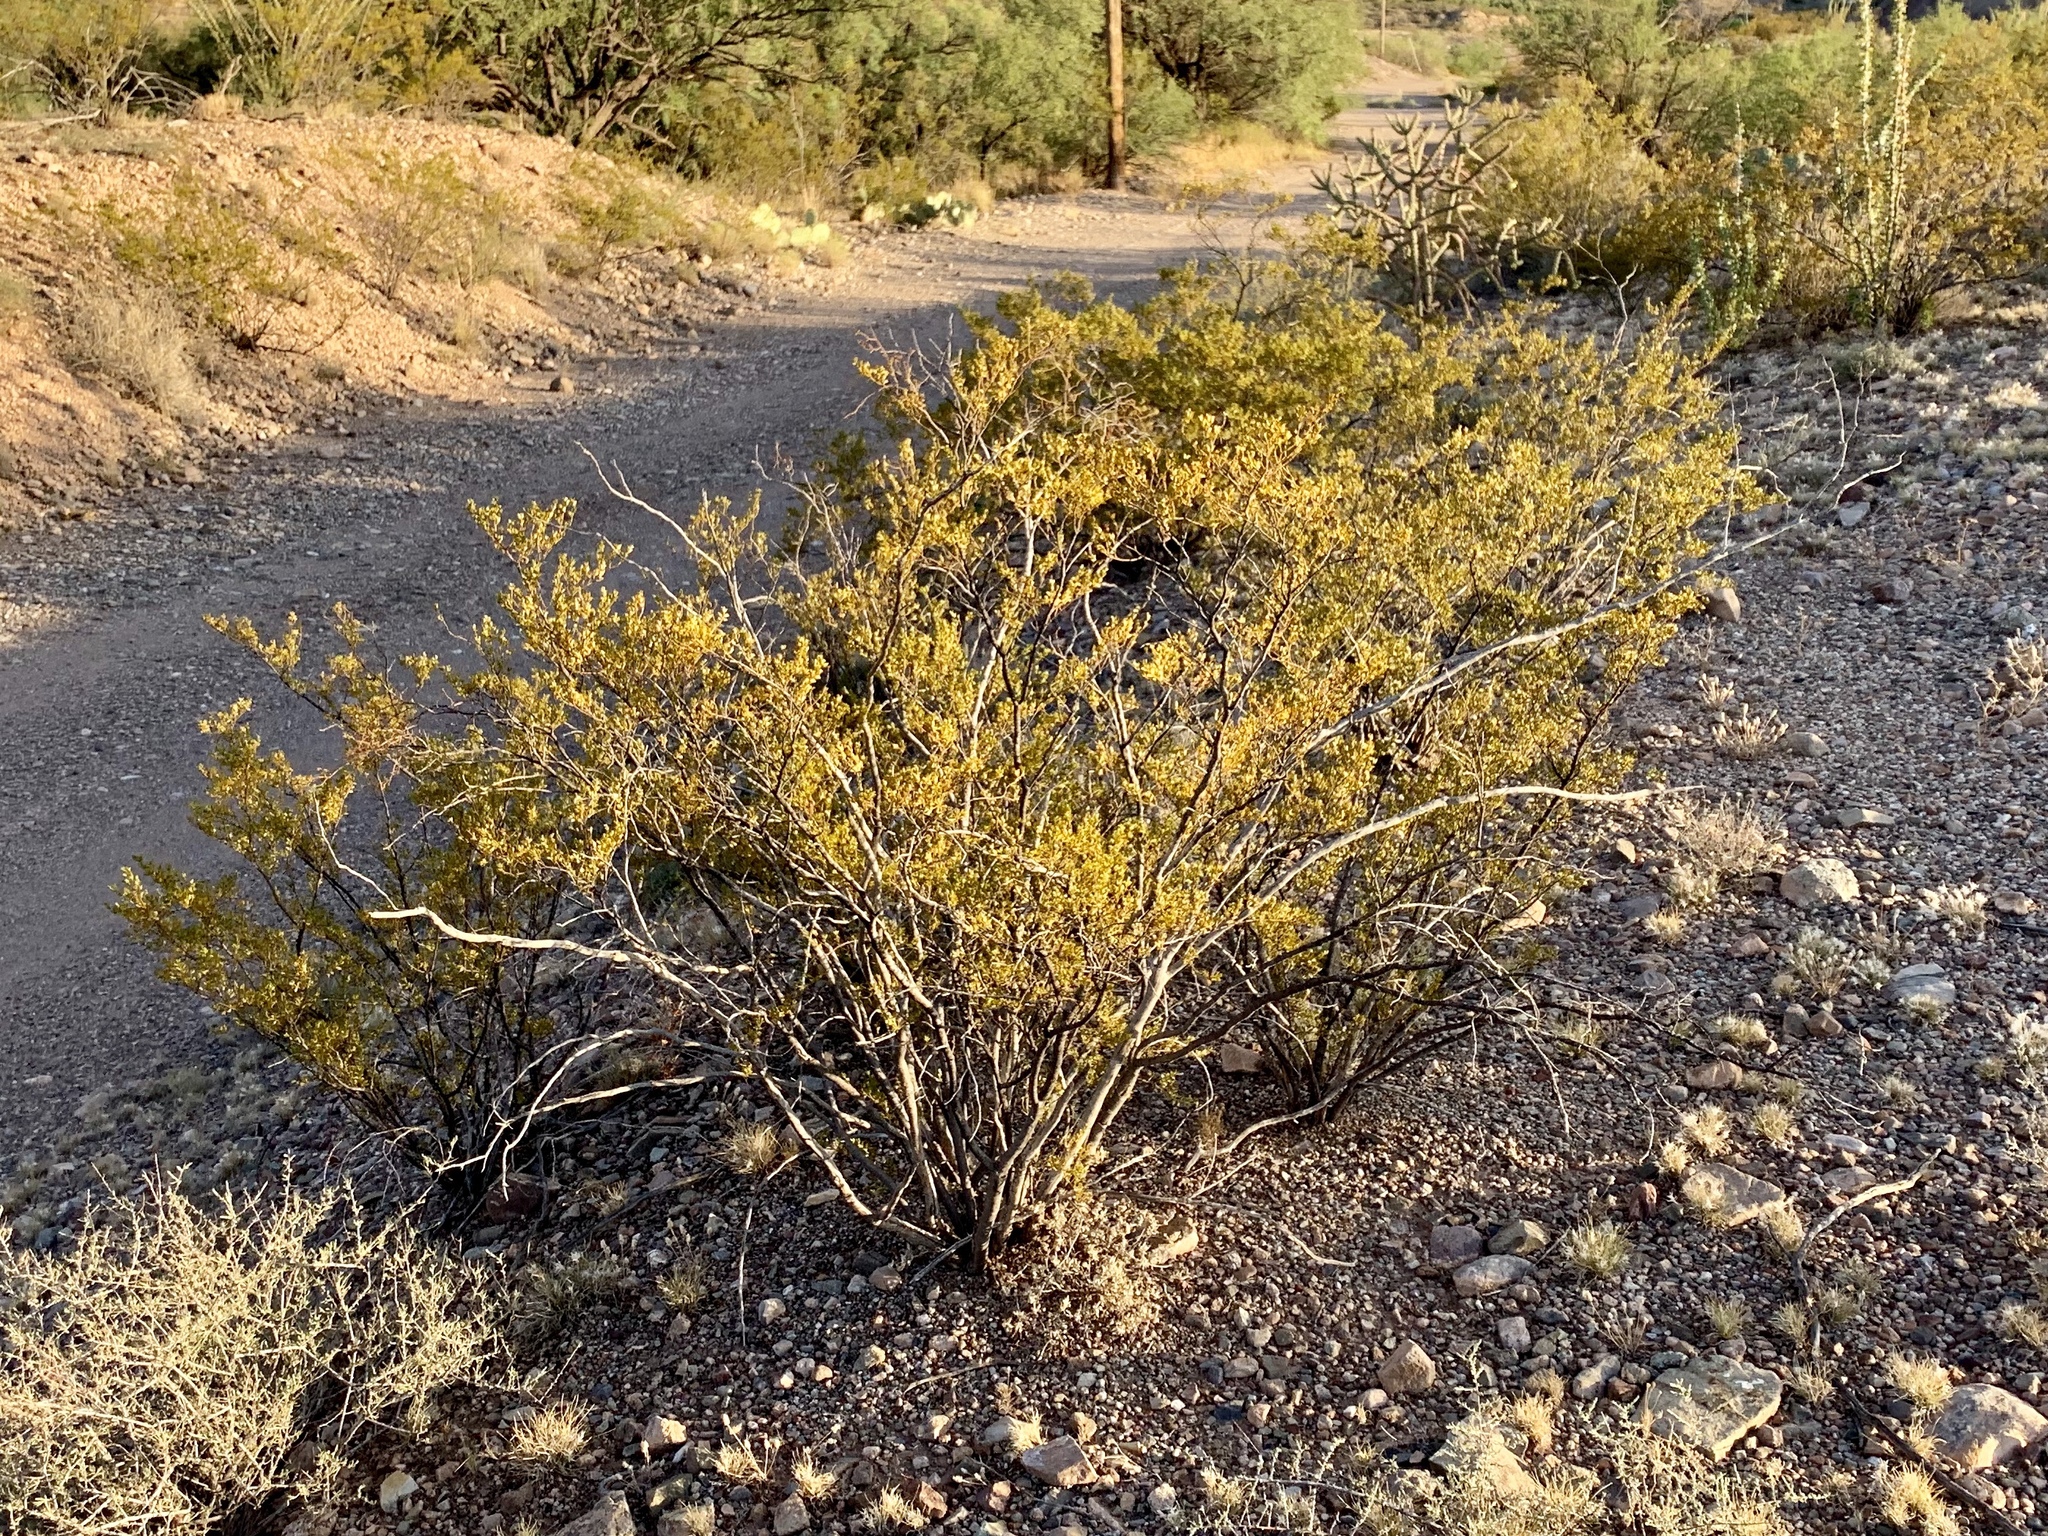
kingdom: Plantae
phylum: Tracheophyta
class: Magnoliopsida
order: Zygophyllales
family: Zygophyllaceae
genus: Larrea
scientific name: Larrea tridentata
